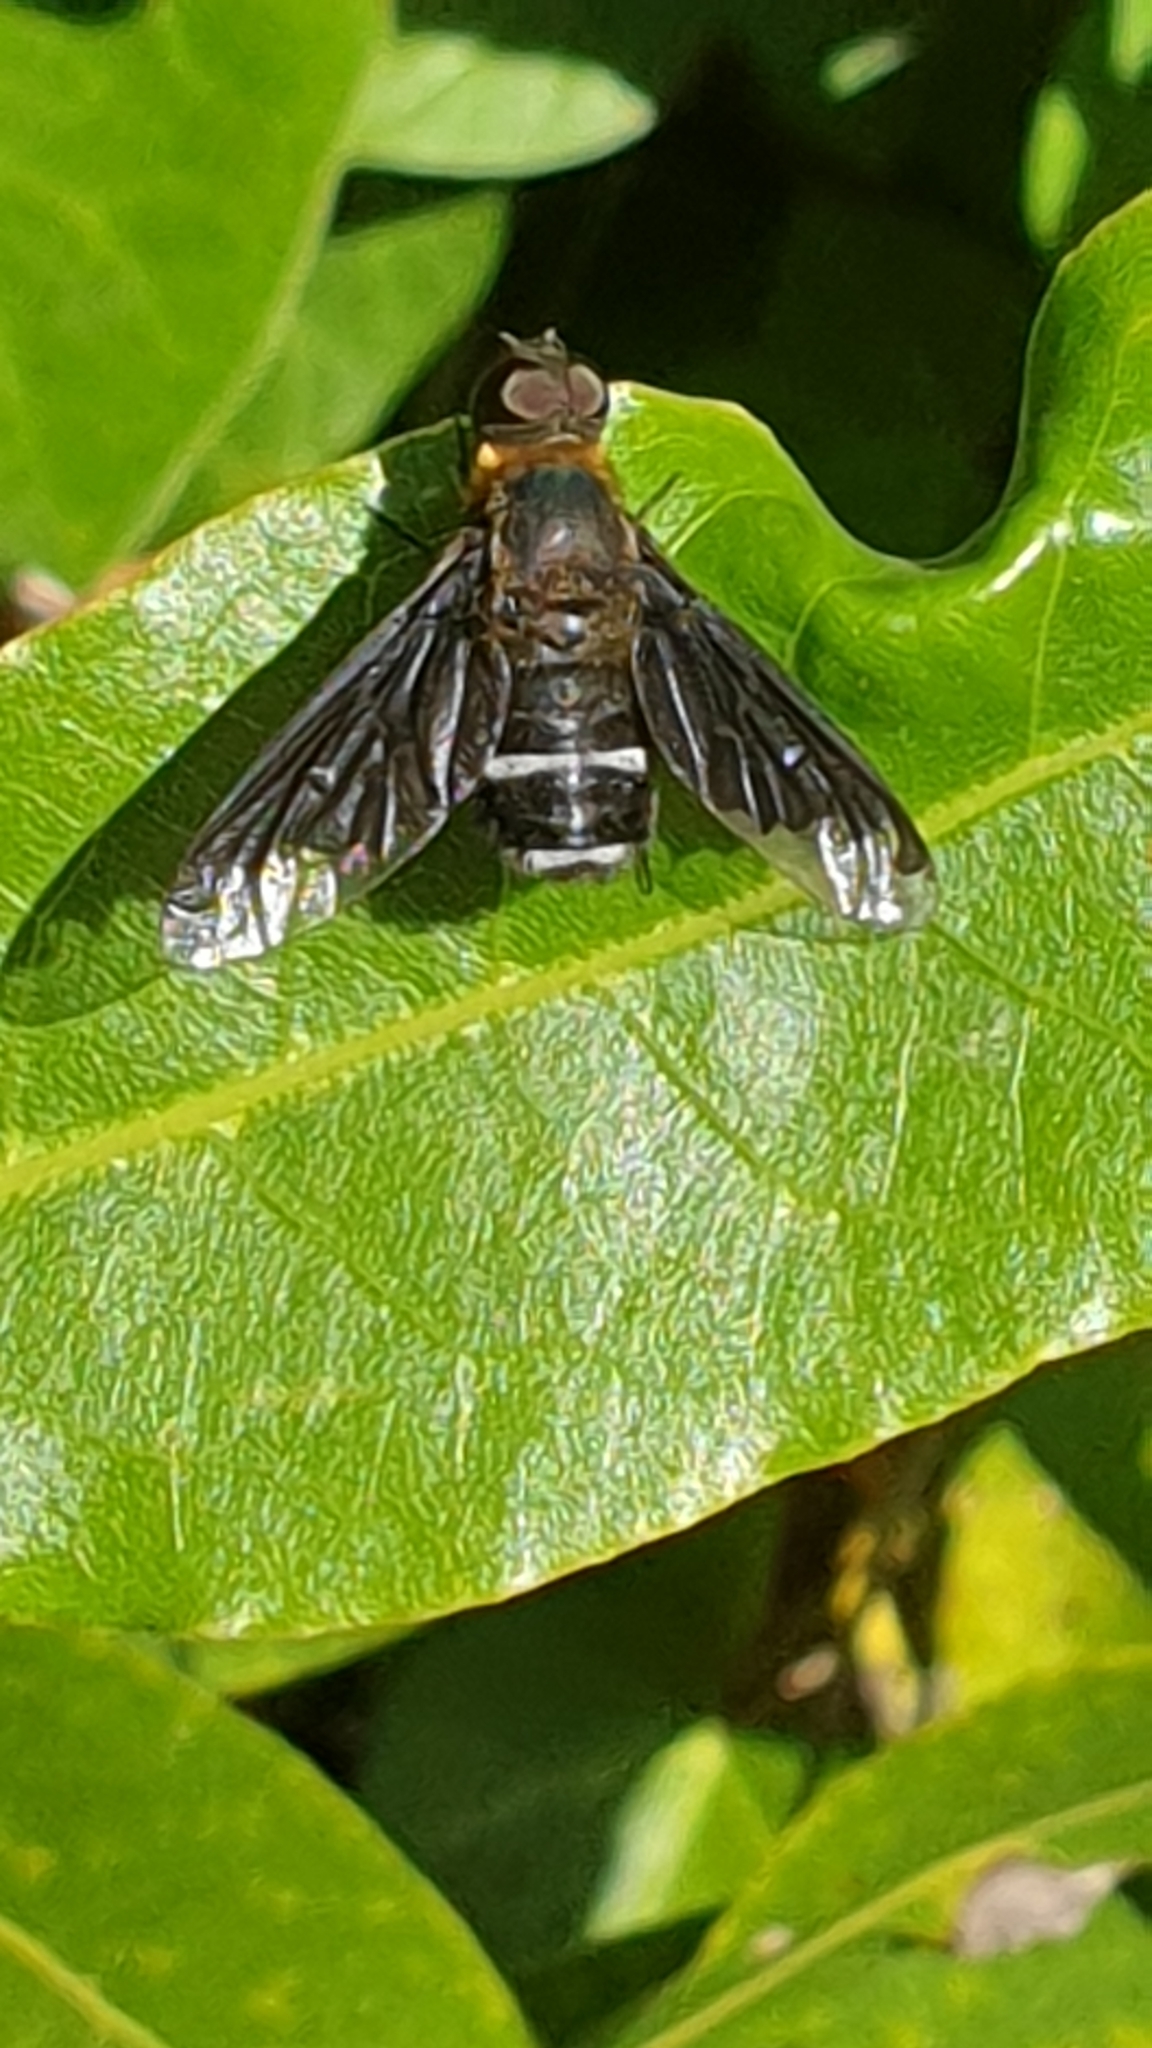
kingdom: Animalia
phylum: Arthropoda
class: Insecta
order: Diptera
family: Bombyliidae
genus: Hemipenthes
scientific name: Hemipenthes velutina
